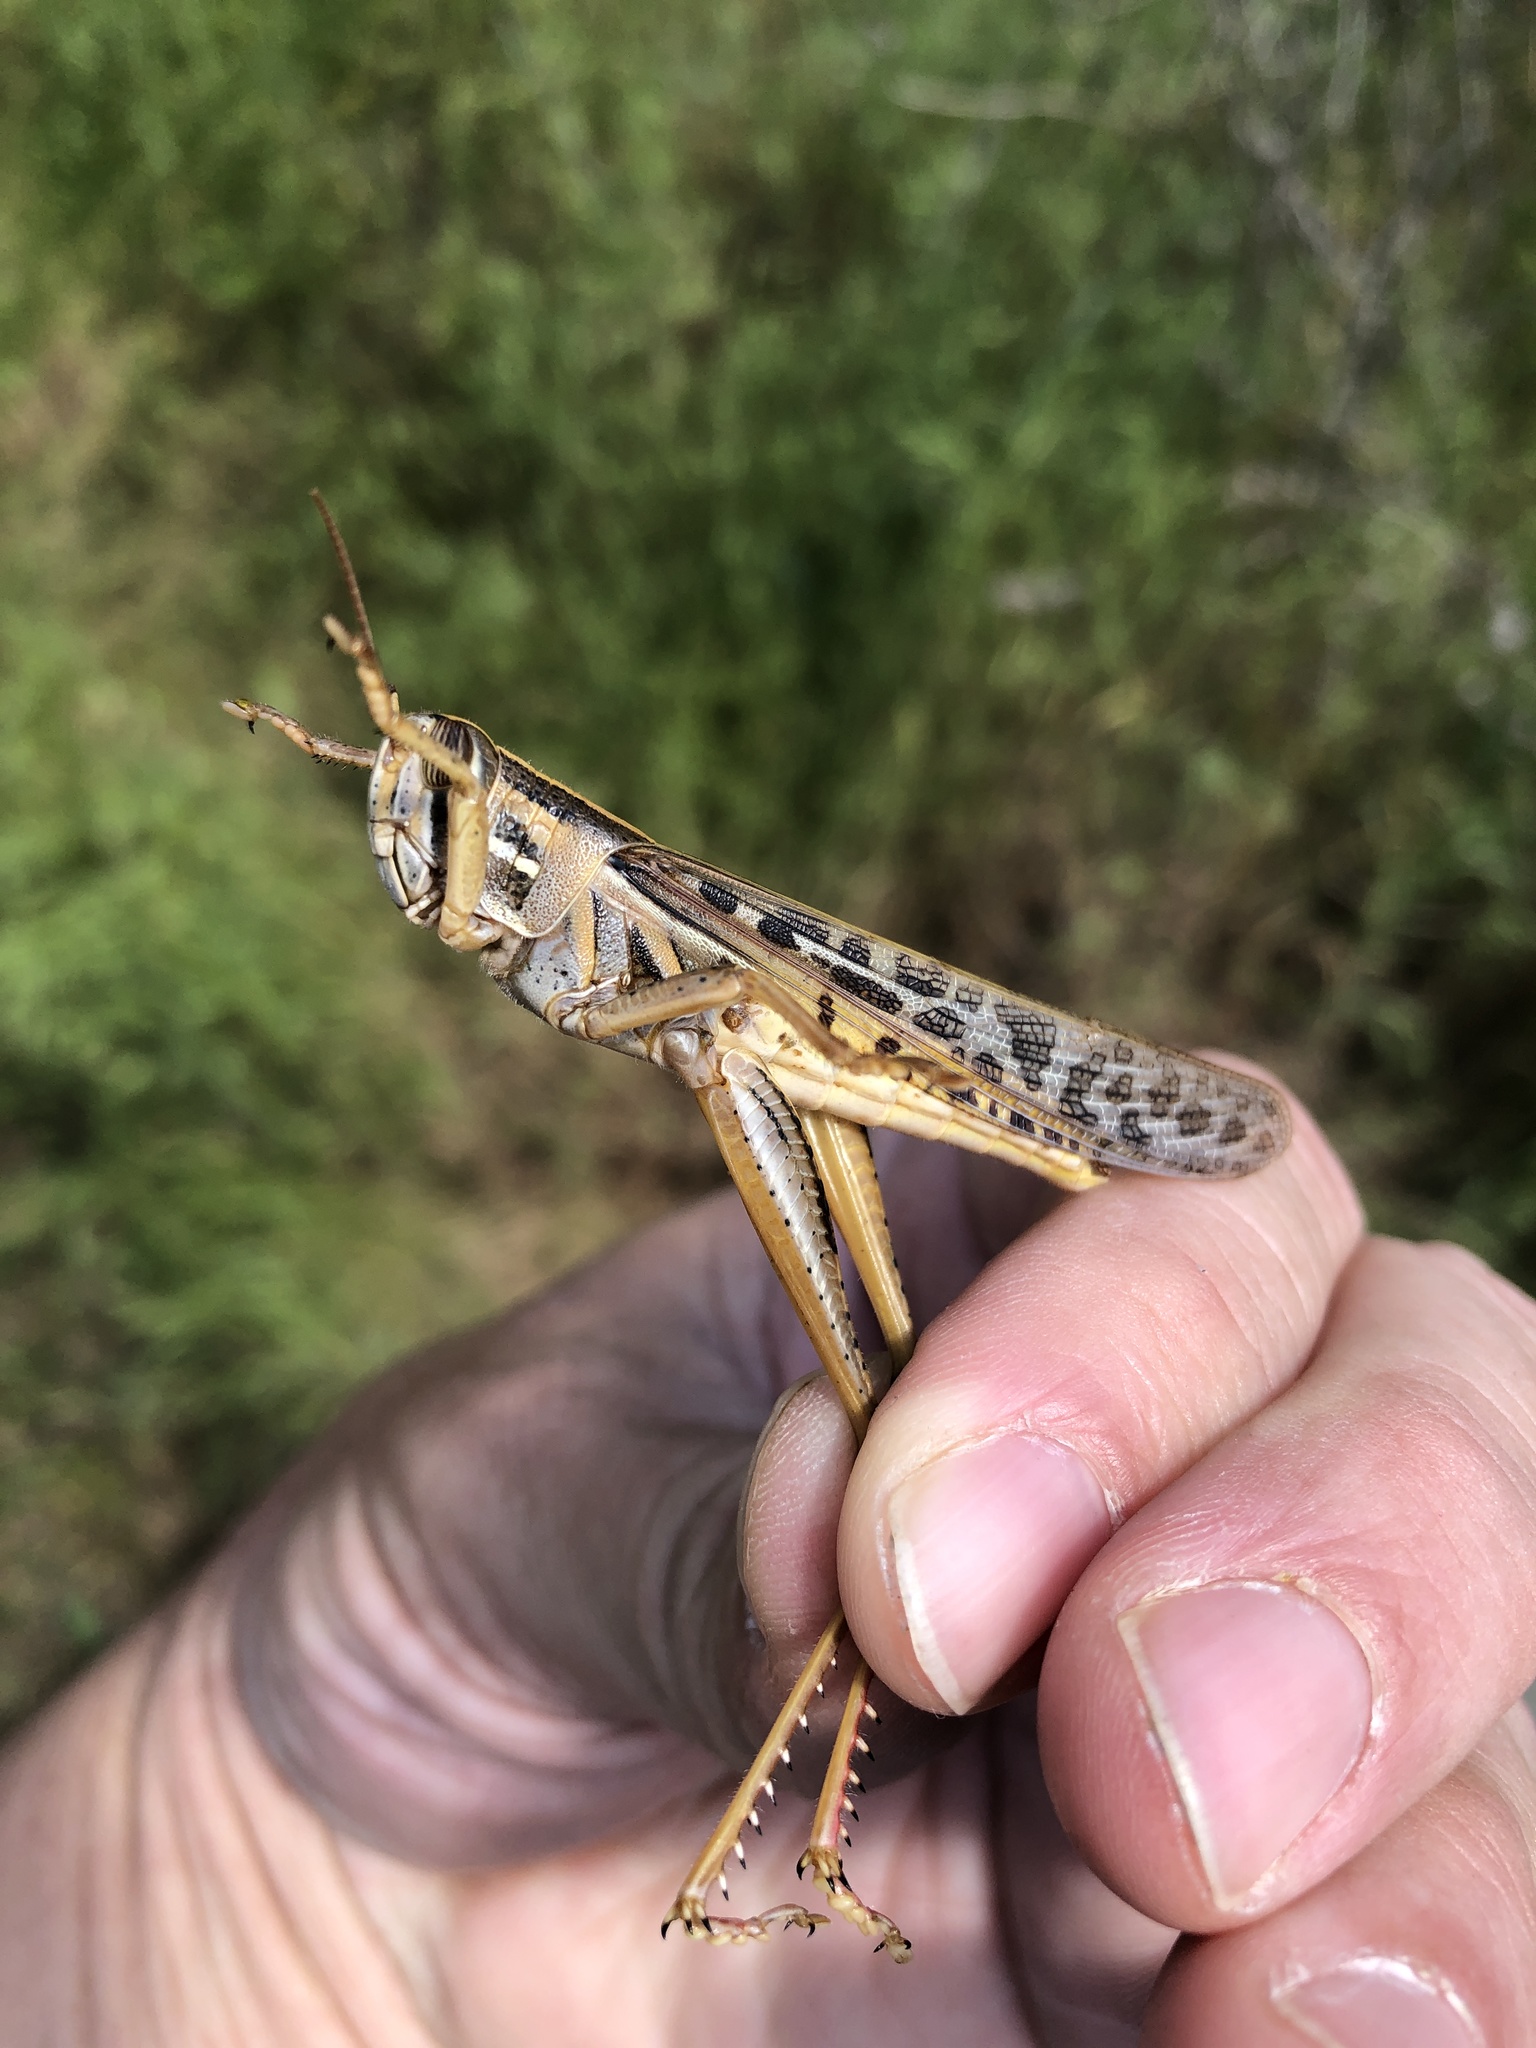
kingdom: Animalia
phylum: Arthropoda
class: Insecta
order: Orthoptera
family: Acrididae
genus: Schistocerca
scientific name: Schistocerca americana
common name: American bird locust
